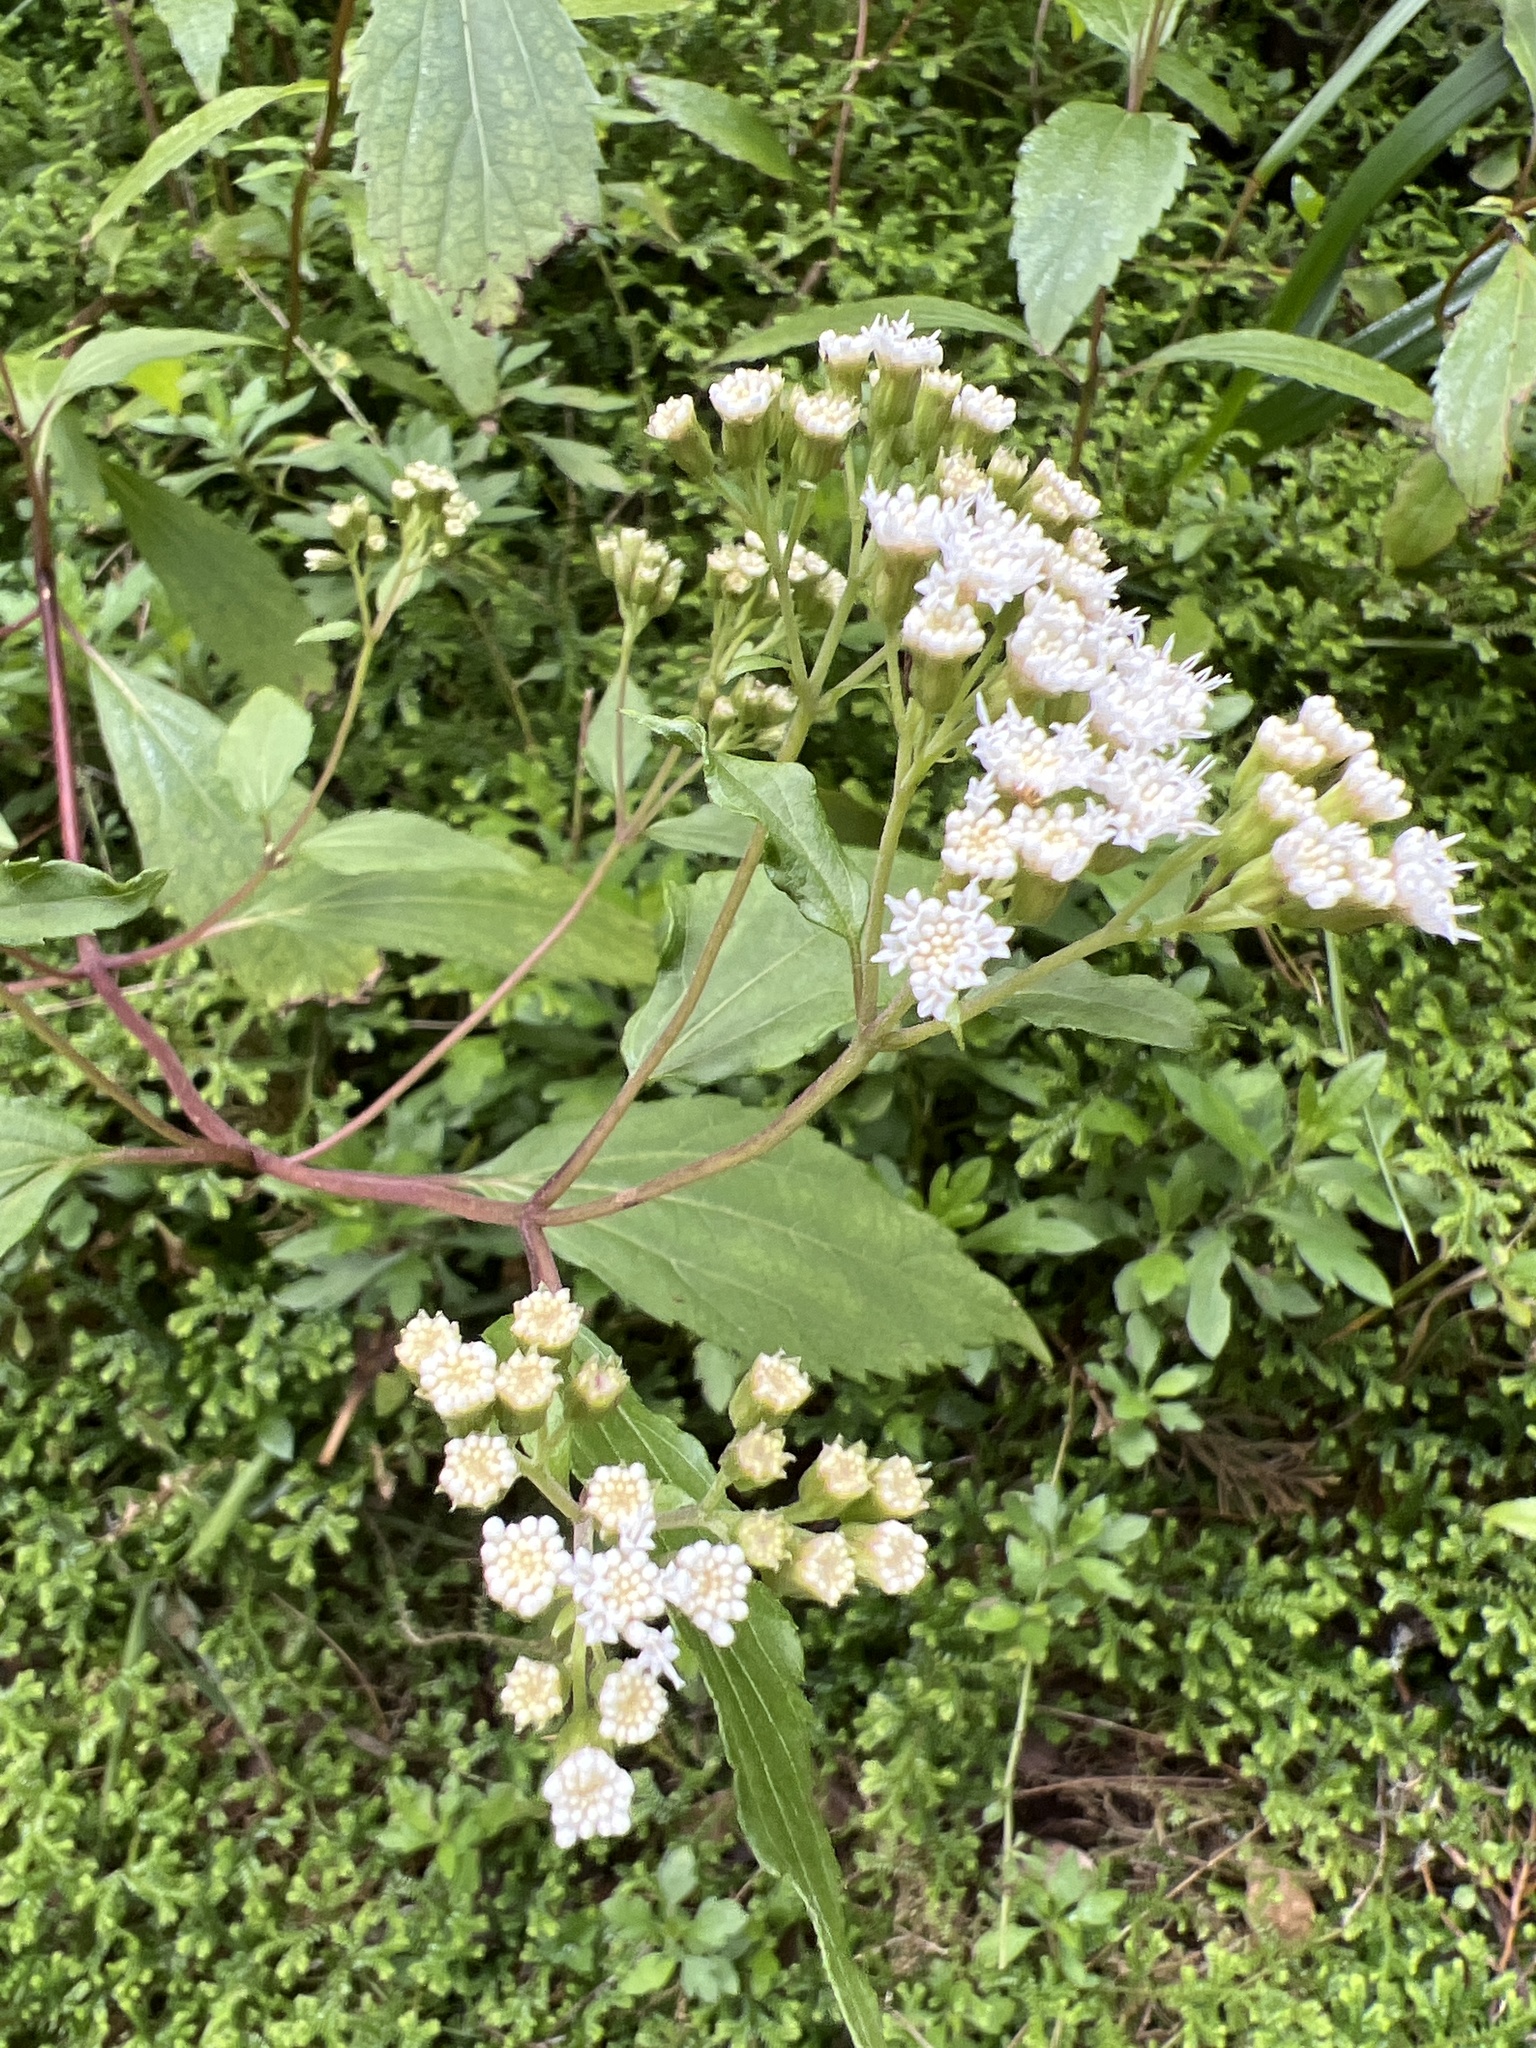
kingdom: Plantae
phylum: Tracheophyta
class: Magnoliopsida
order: Asterales
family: Asteraceae
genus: Ageratina
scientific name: Ageratina riparia
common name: Creeping croftonweed
